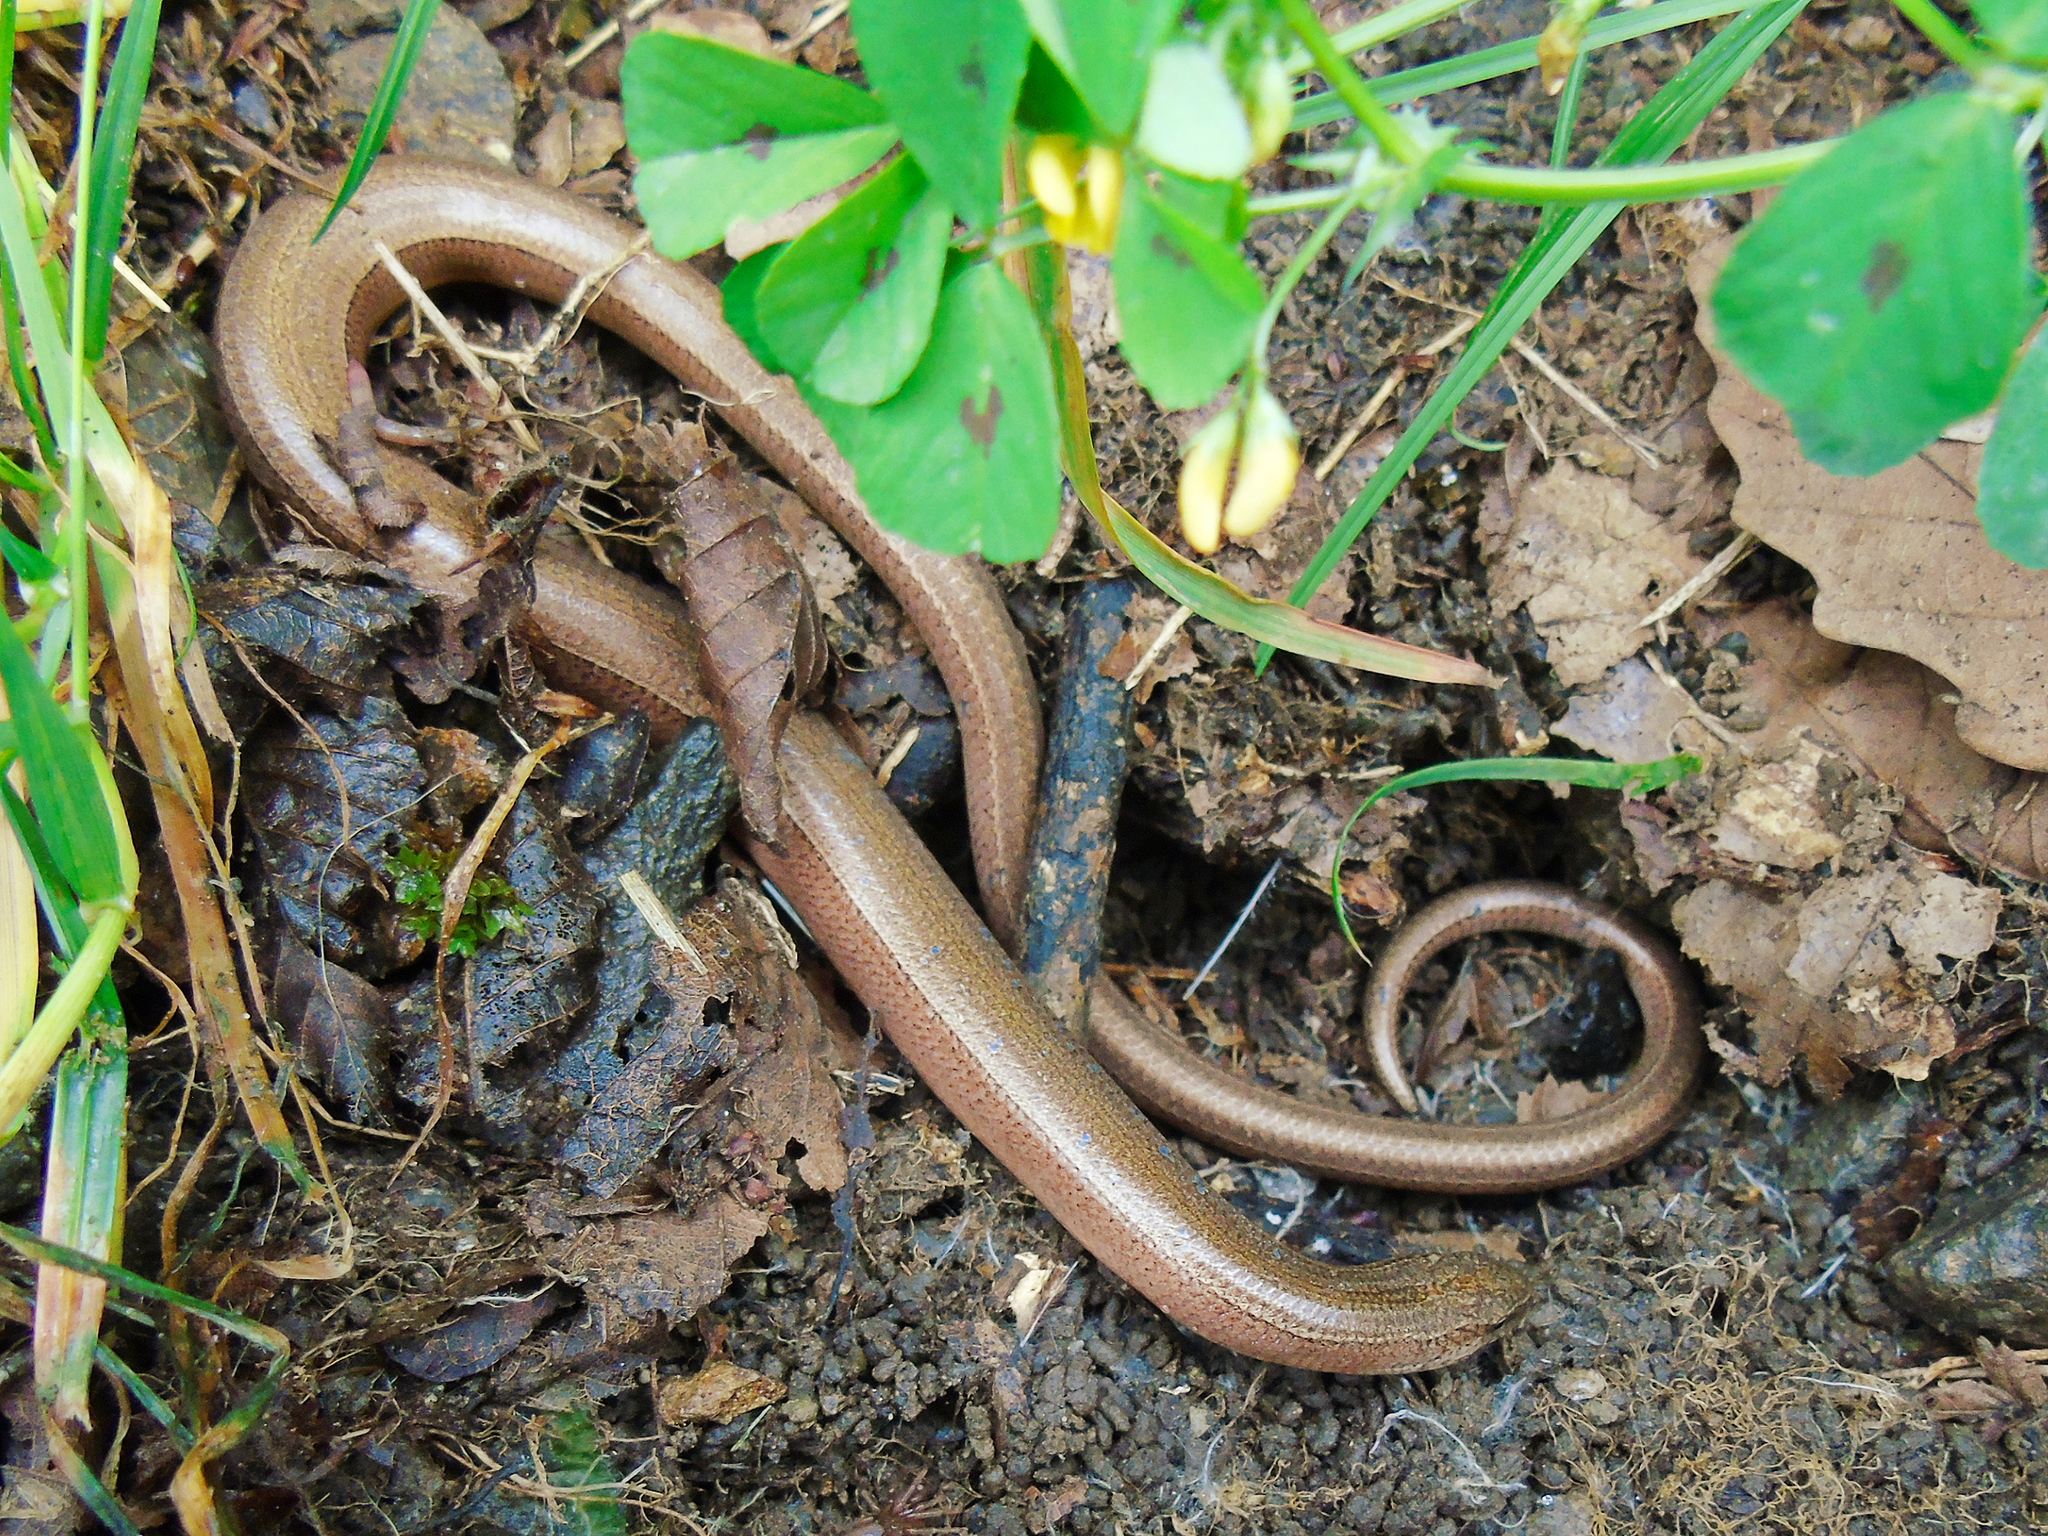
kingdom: Animalia
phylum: Chordata
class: Squamata
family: Anguidae
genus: Anguis
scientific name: Anguis colchica
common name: Slow worm
